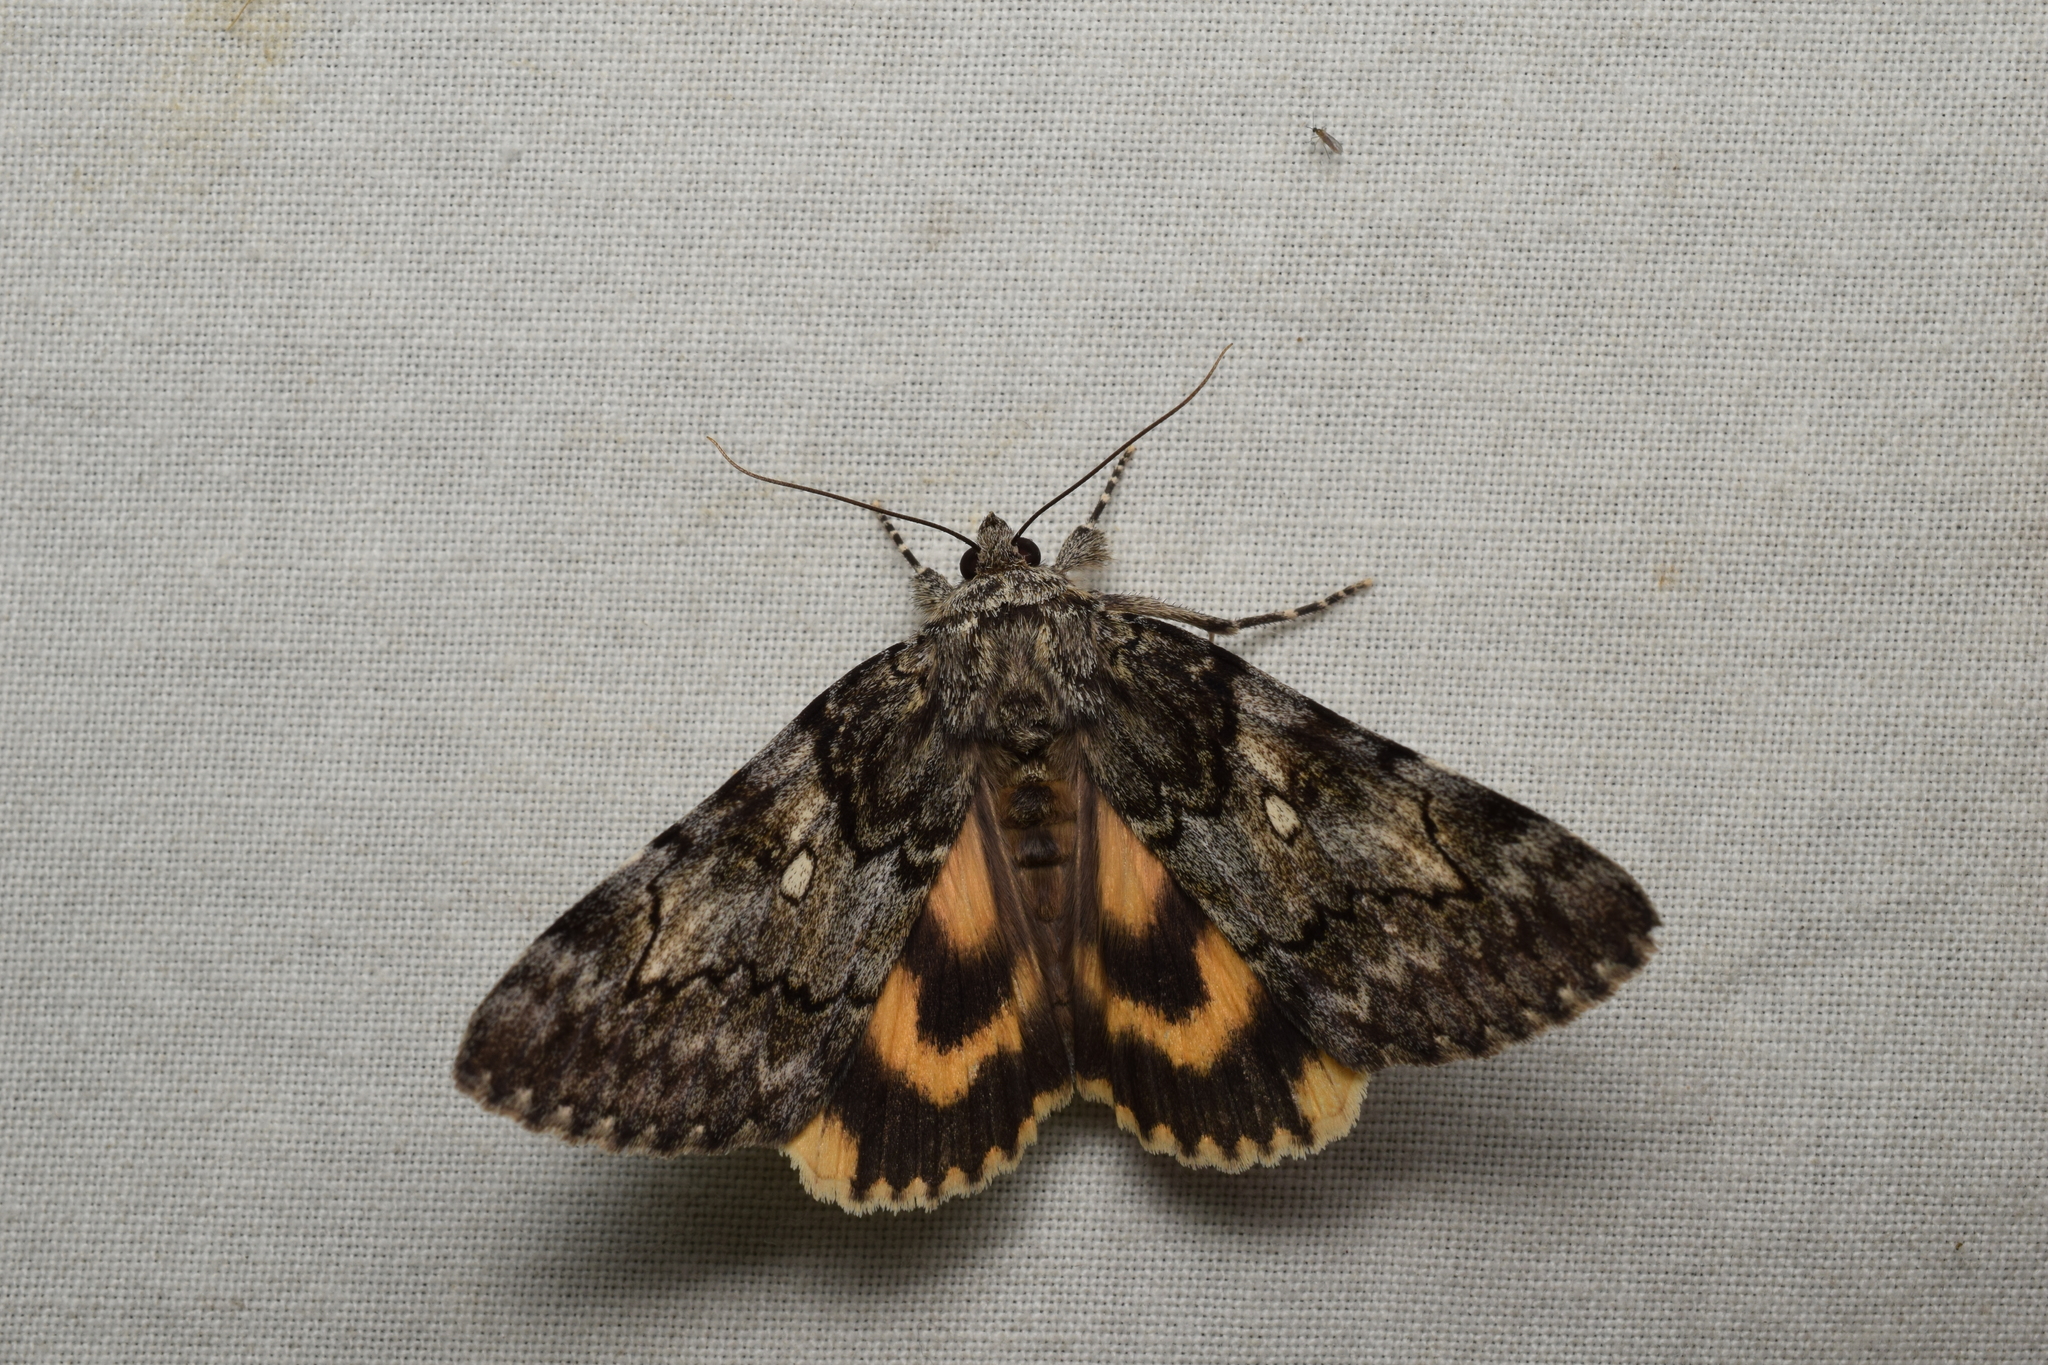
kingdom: Animalia
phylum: Arthropoda
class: Insecta
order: Lepidoptera
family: Erebidae
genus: Catocala
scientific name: Catocala streckeri
